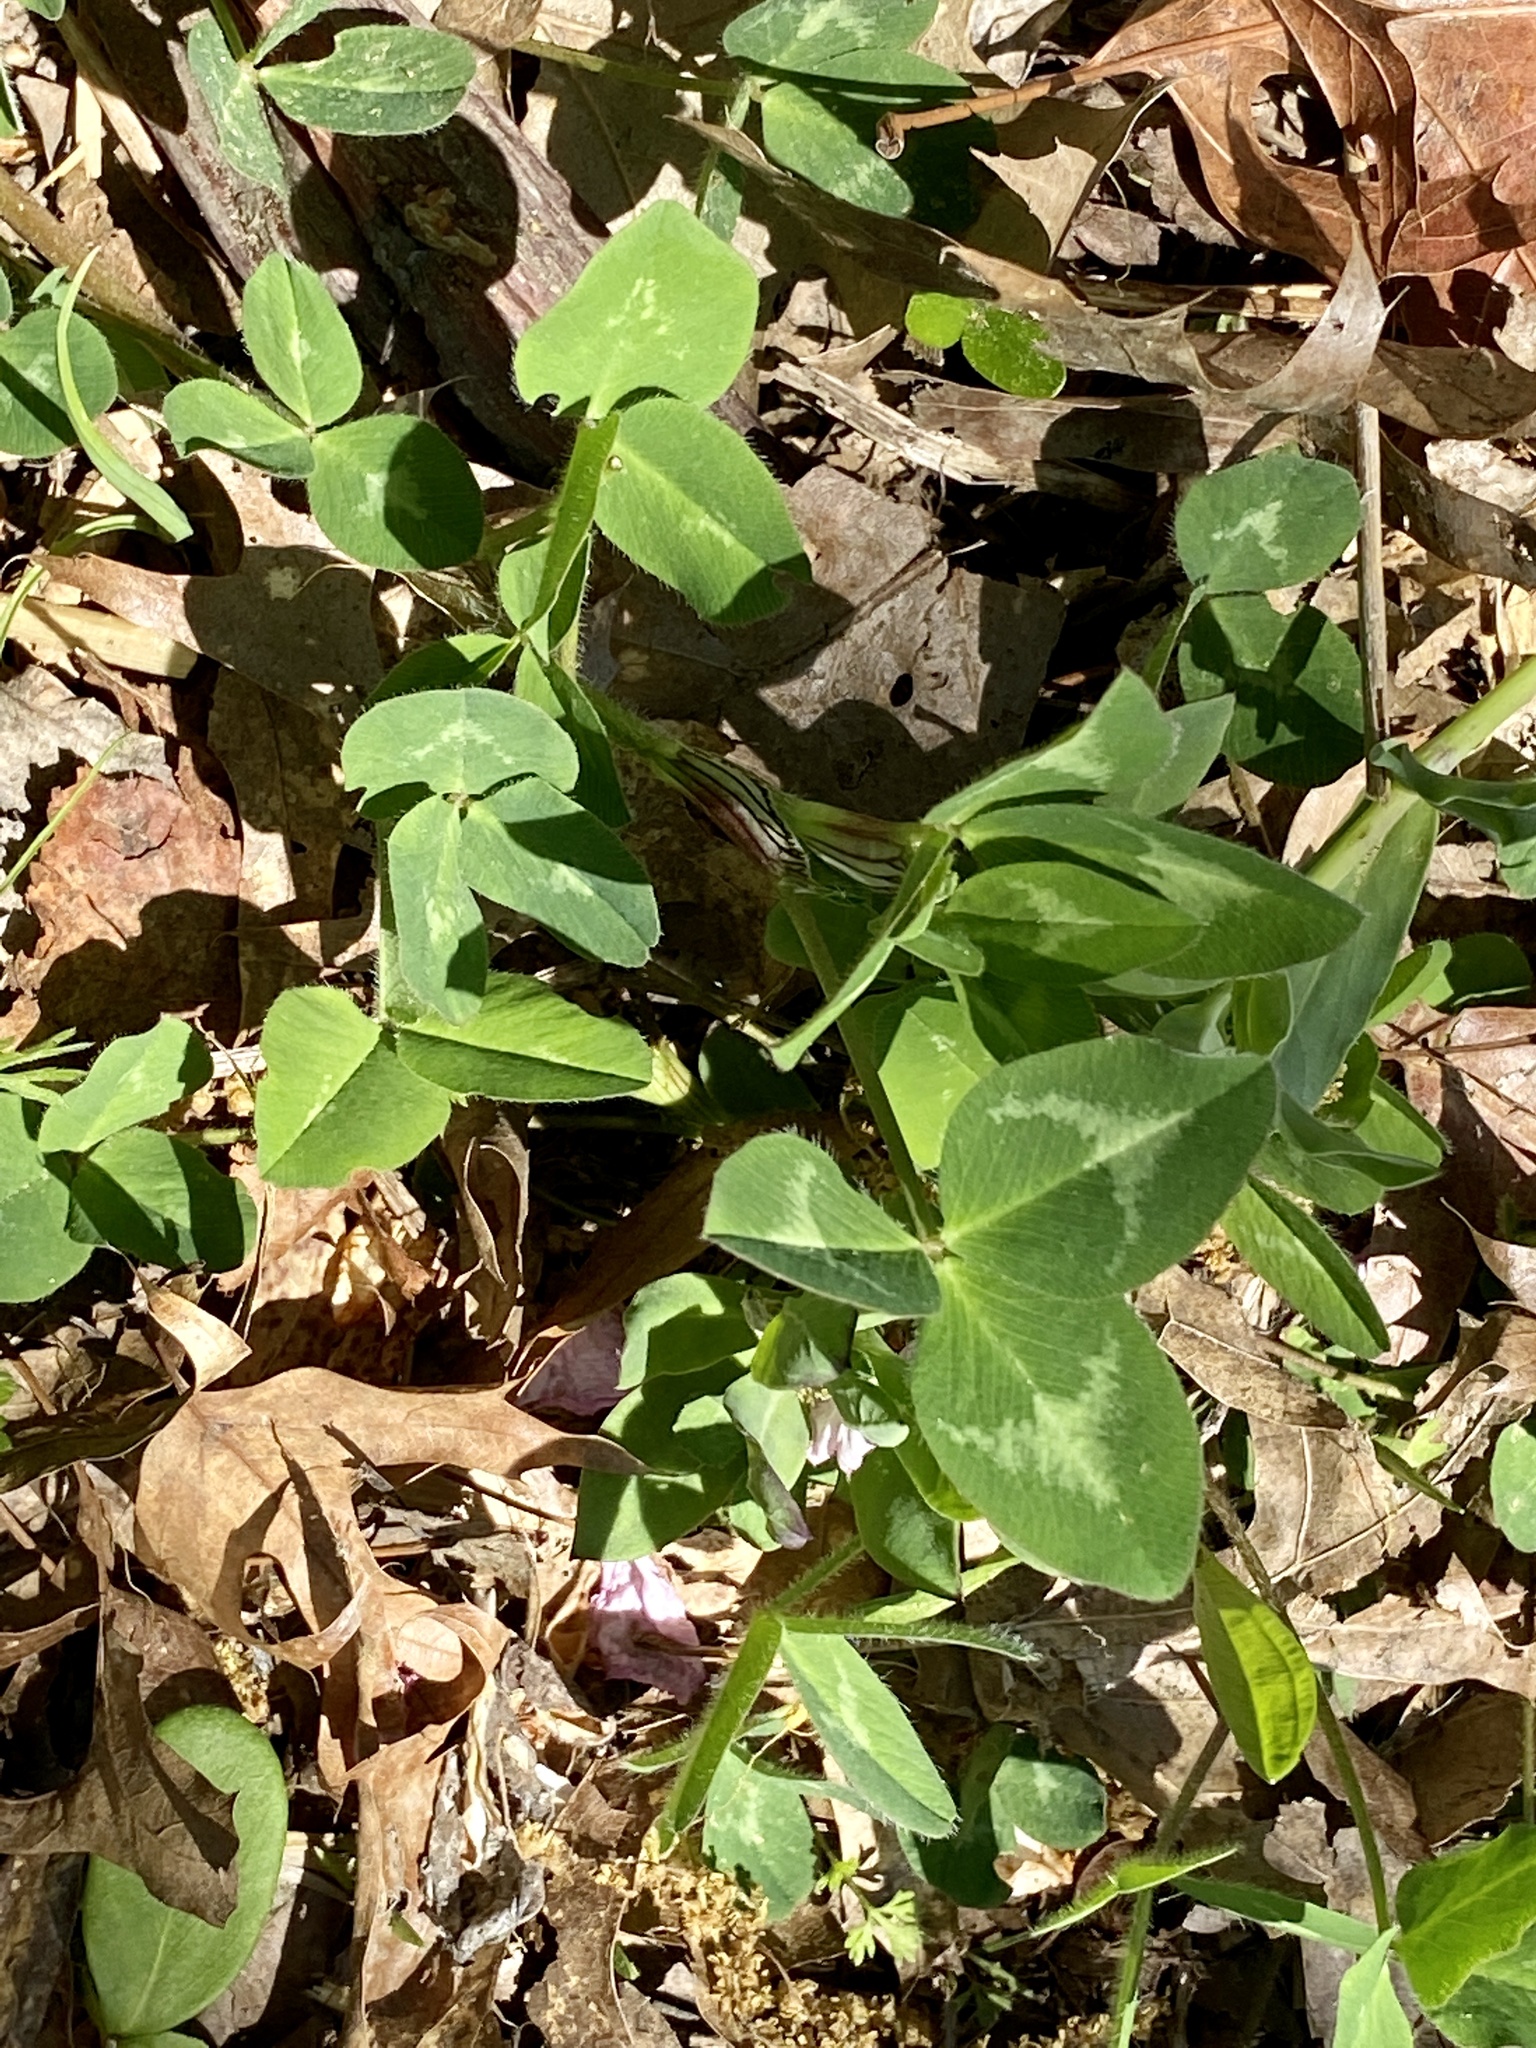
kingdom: Plantae
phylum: Tracheophyta
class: Magnoliopsida
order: Fabales
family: Fabaceae
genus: Trifolium
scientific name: Trifolium pratense
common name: Red clover
